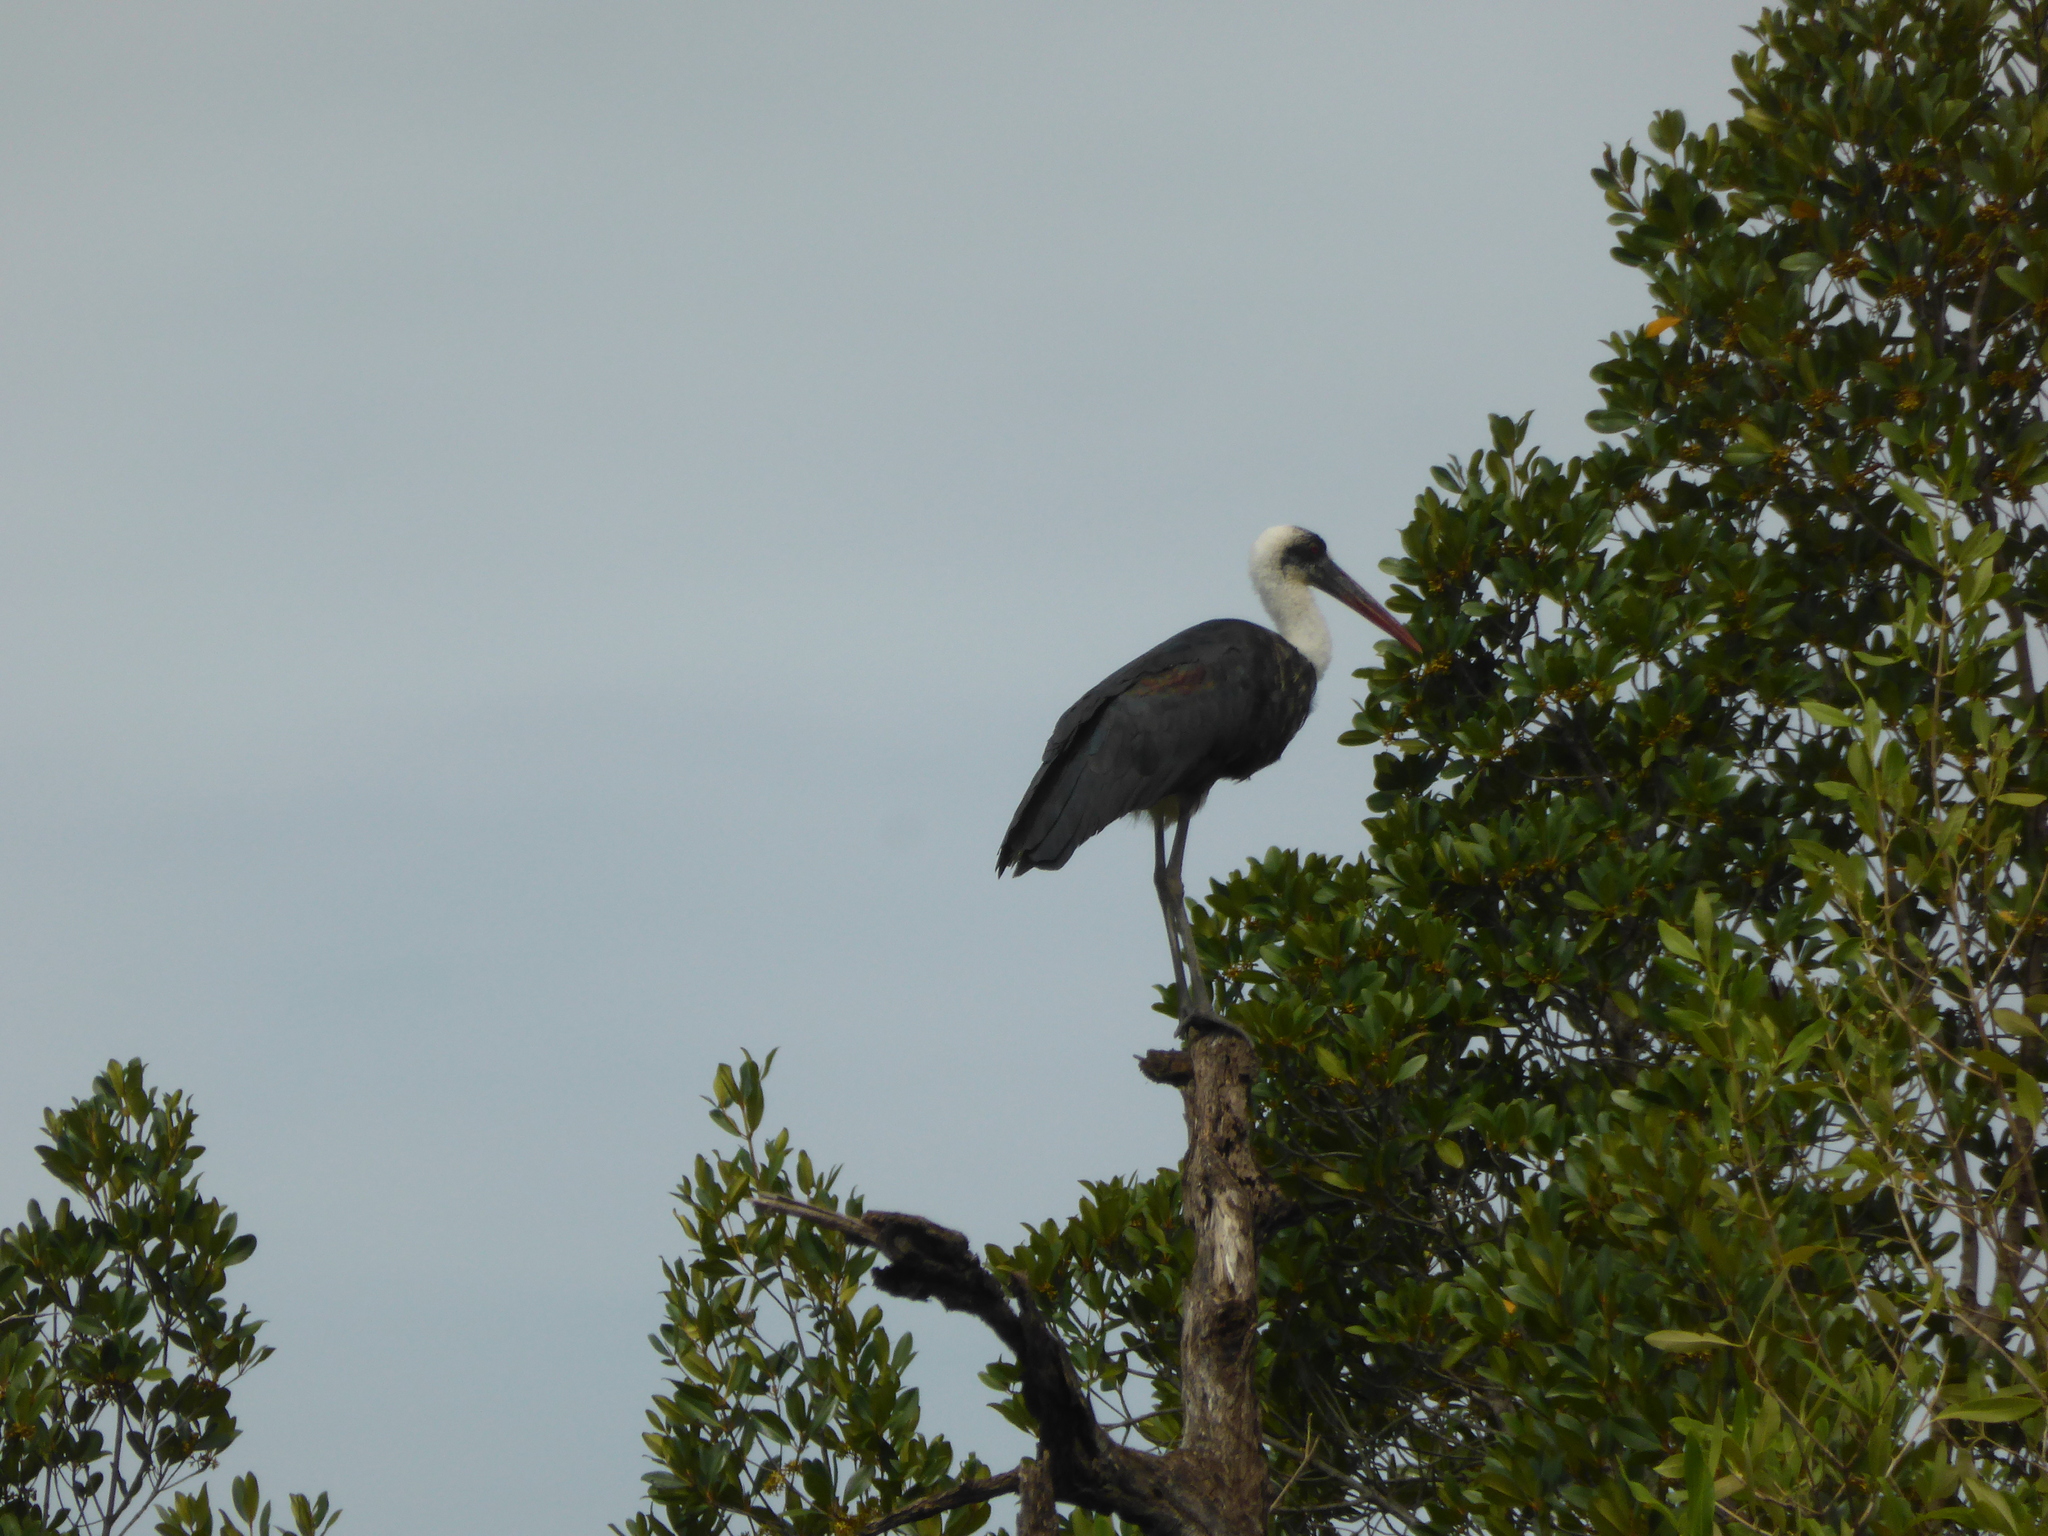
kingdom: Animalia
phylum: Chordata
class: Aves
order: Ciconiiformes
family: Ciconiidae
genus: Ciconia
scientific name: Ciconia microscelis
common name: African woollyneck
